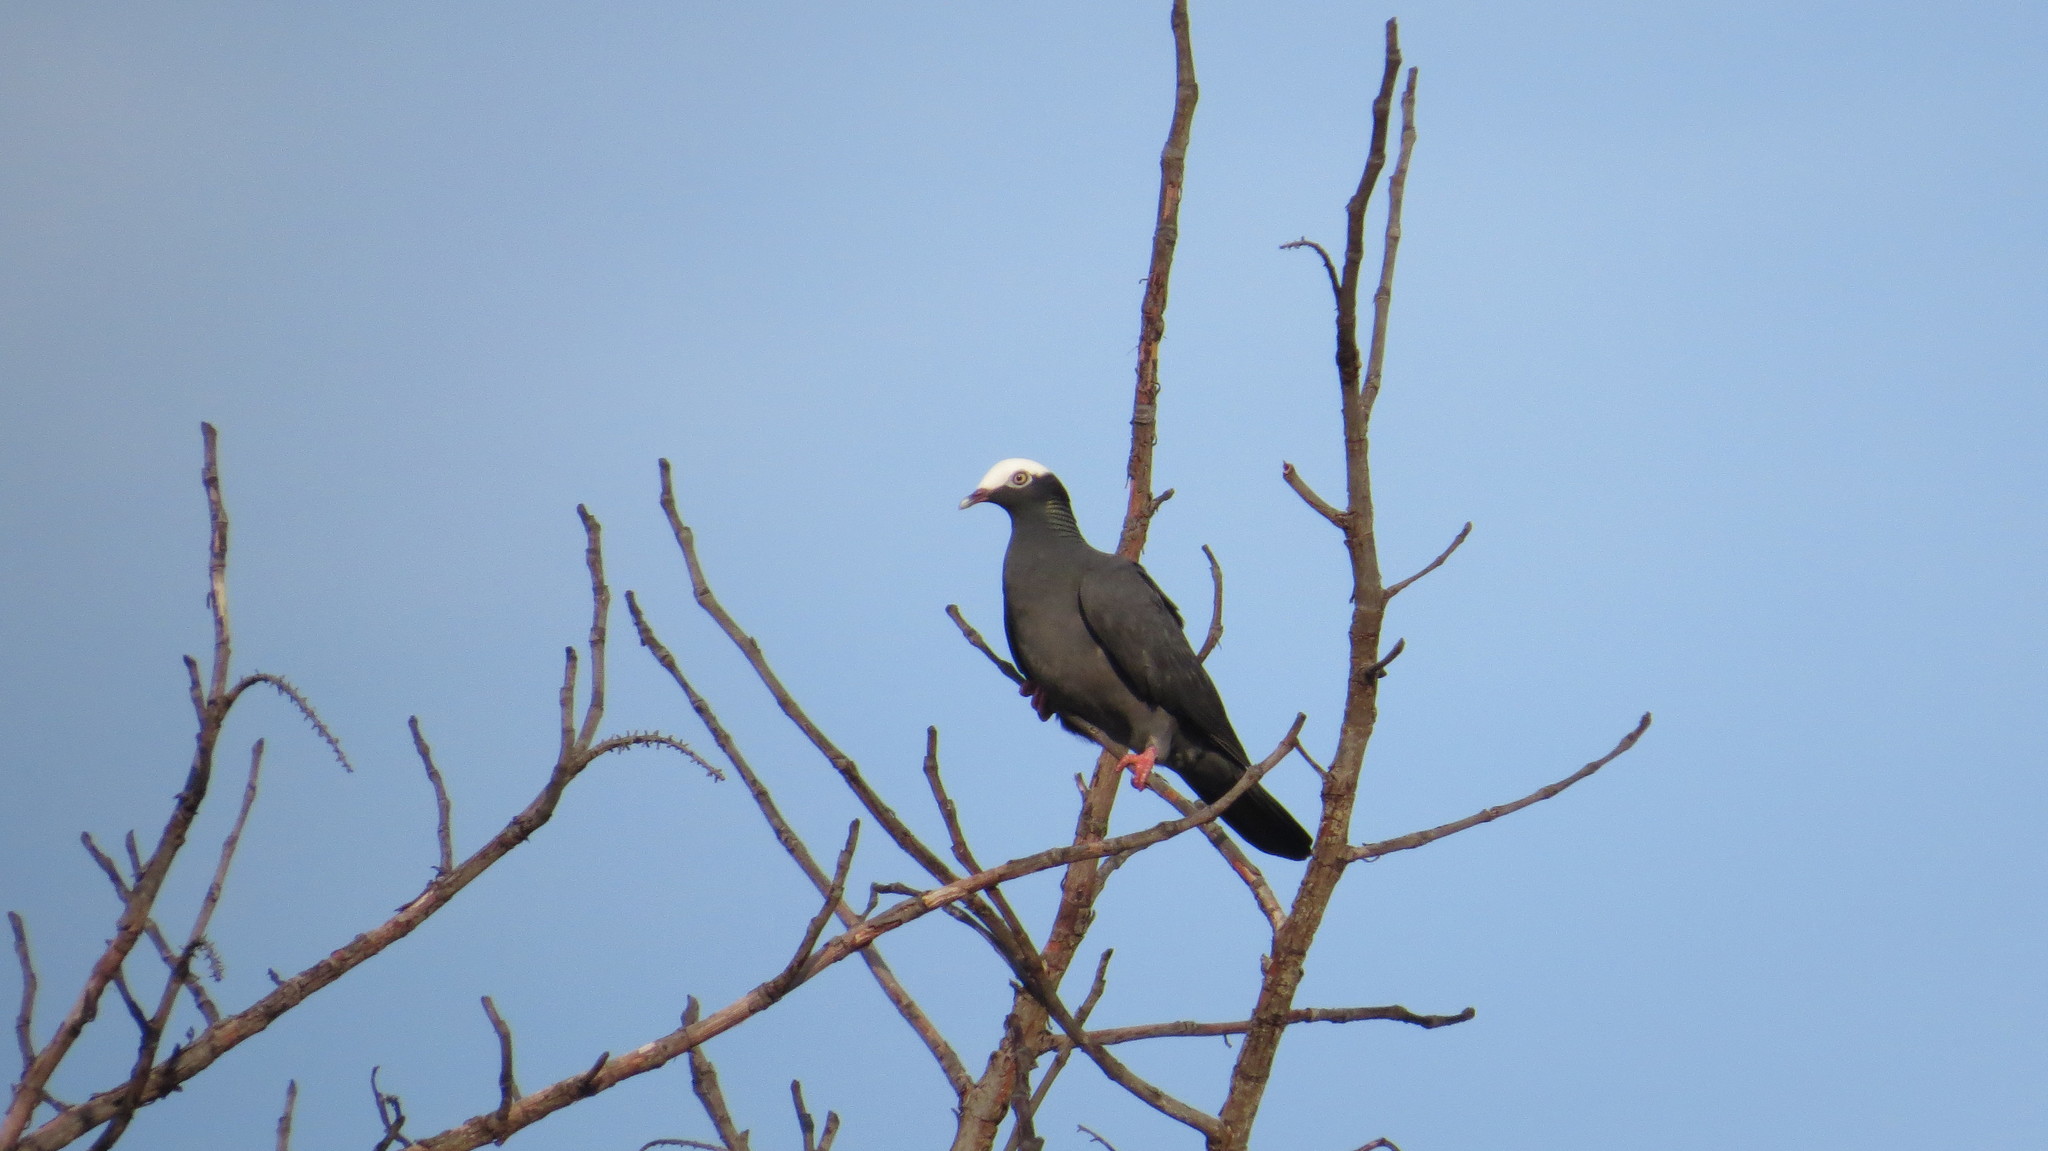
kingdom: Animalia
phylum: Chordata
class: Aves
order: Columbiformes
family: Columbidae
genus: Patagioenas
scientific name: Patagioenas leucocephala
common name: White-crowned pigeon
